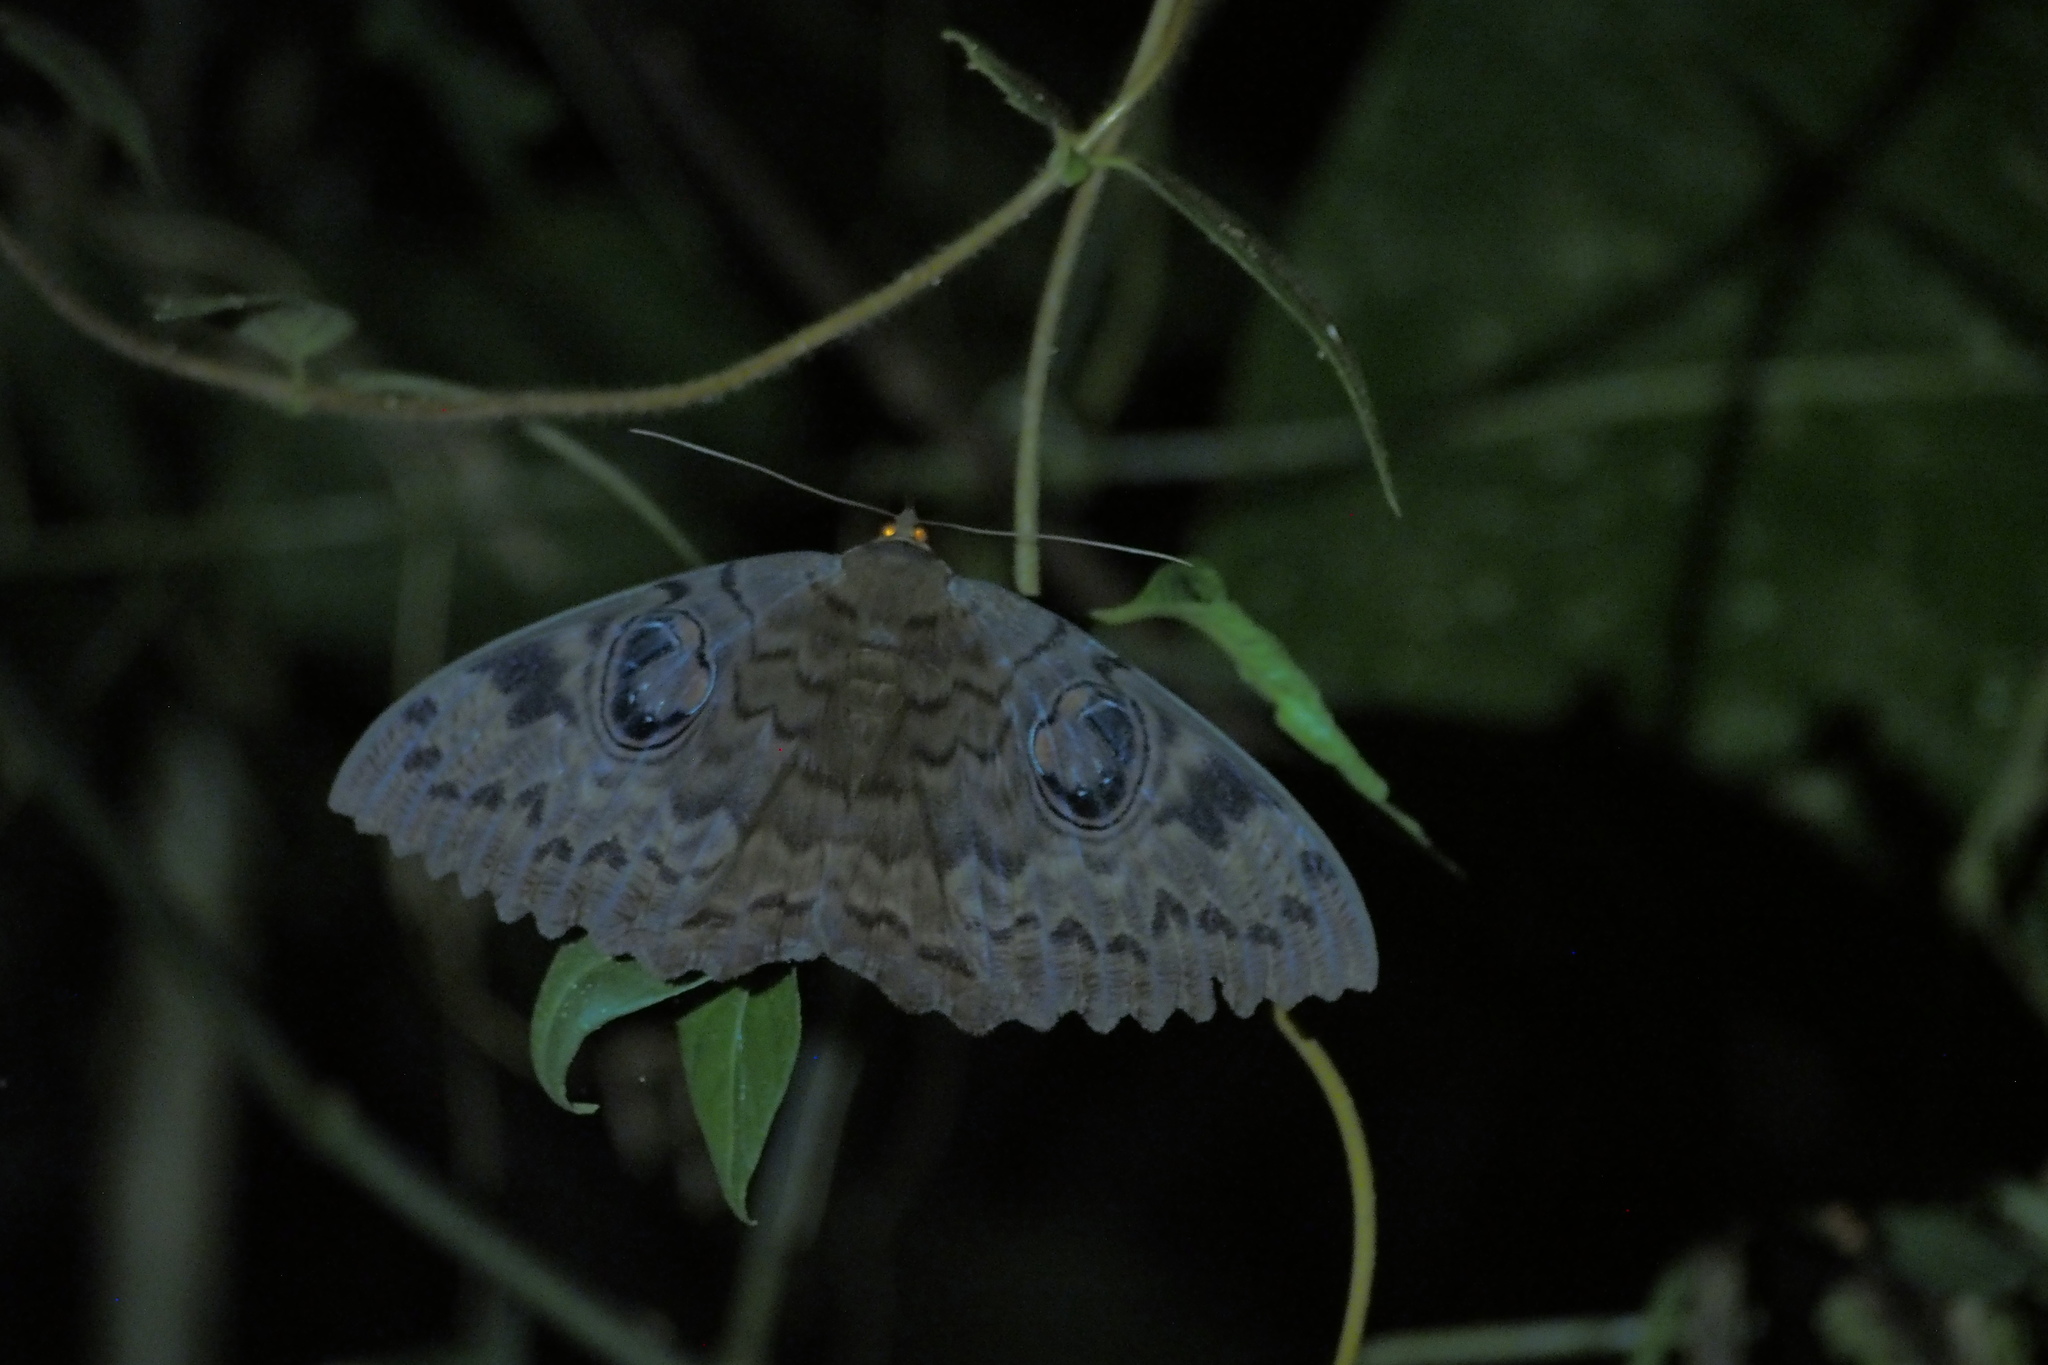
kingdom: Animalia
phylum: Arthropoda
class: Insecta
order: Lepidoptera
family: Erebidae
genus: Erebus
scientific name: Erebus walkeri
